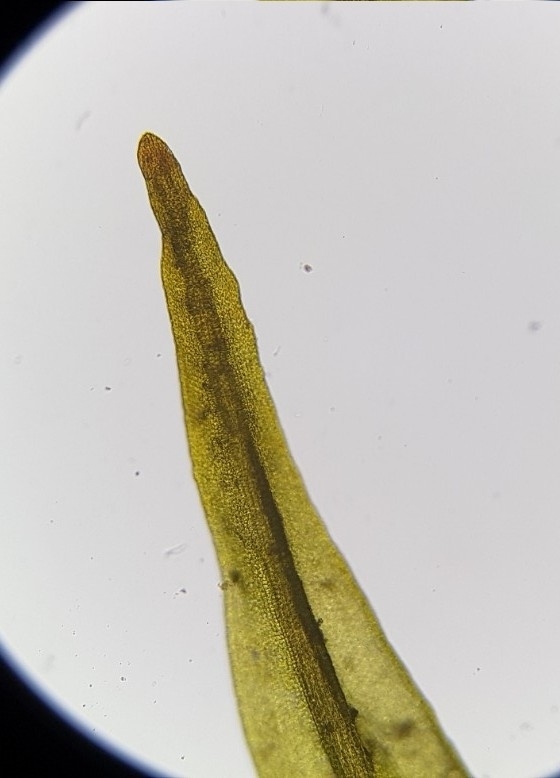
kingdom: Plantae
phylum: Bryophyta
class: Bryopsida
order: Pottiales
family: Pottiaceae
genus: Didymodon
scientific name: Didymodon rigidulus
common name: Rigid beard-moss
